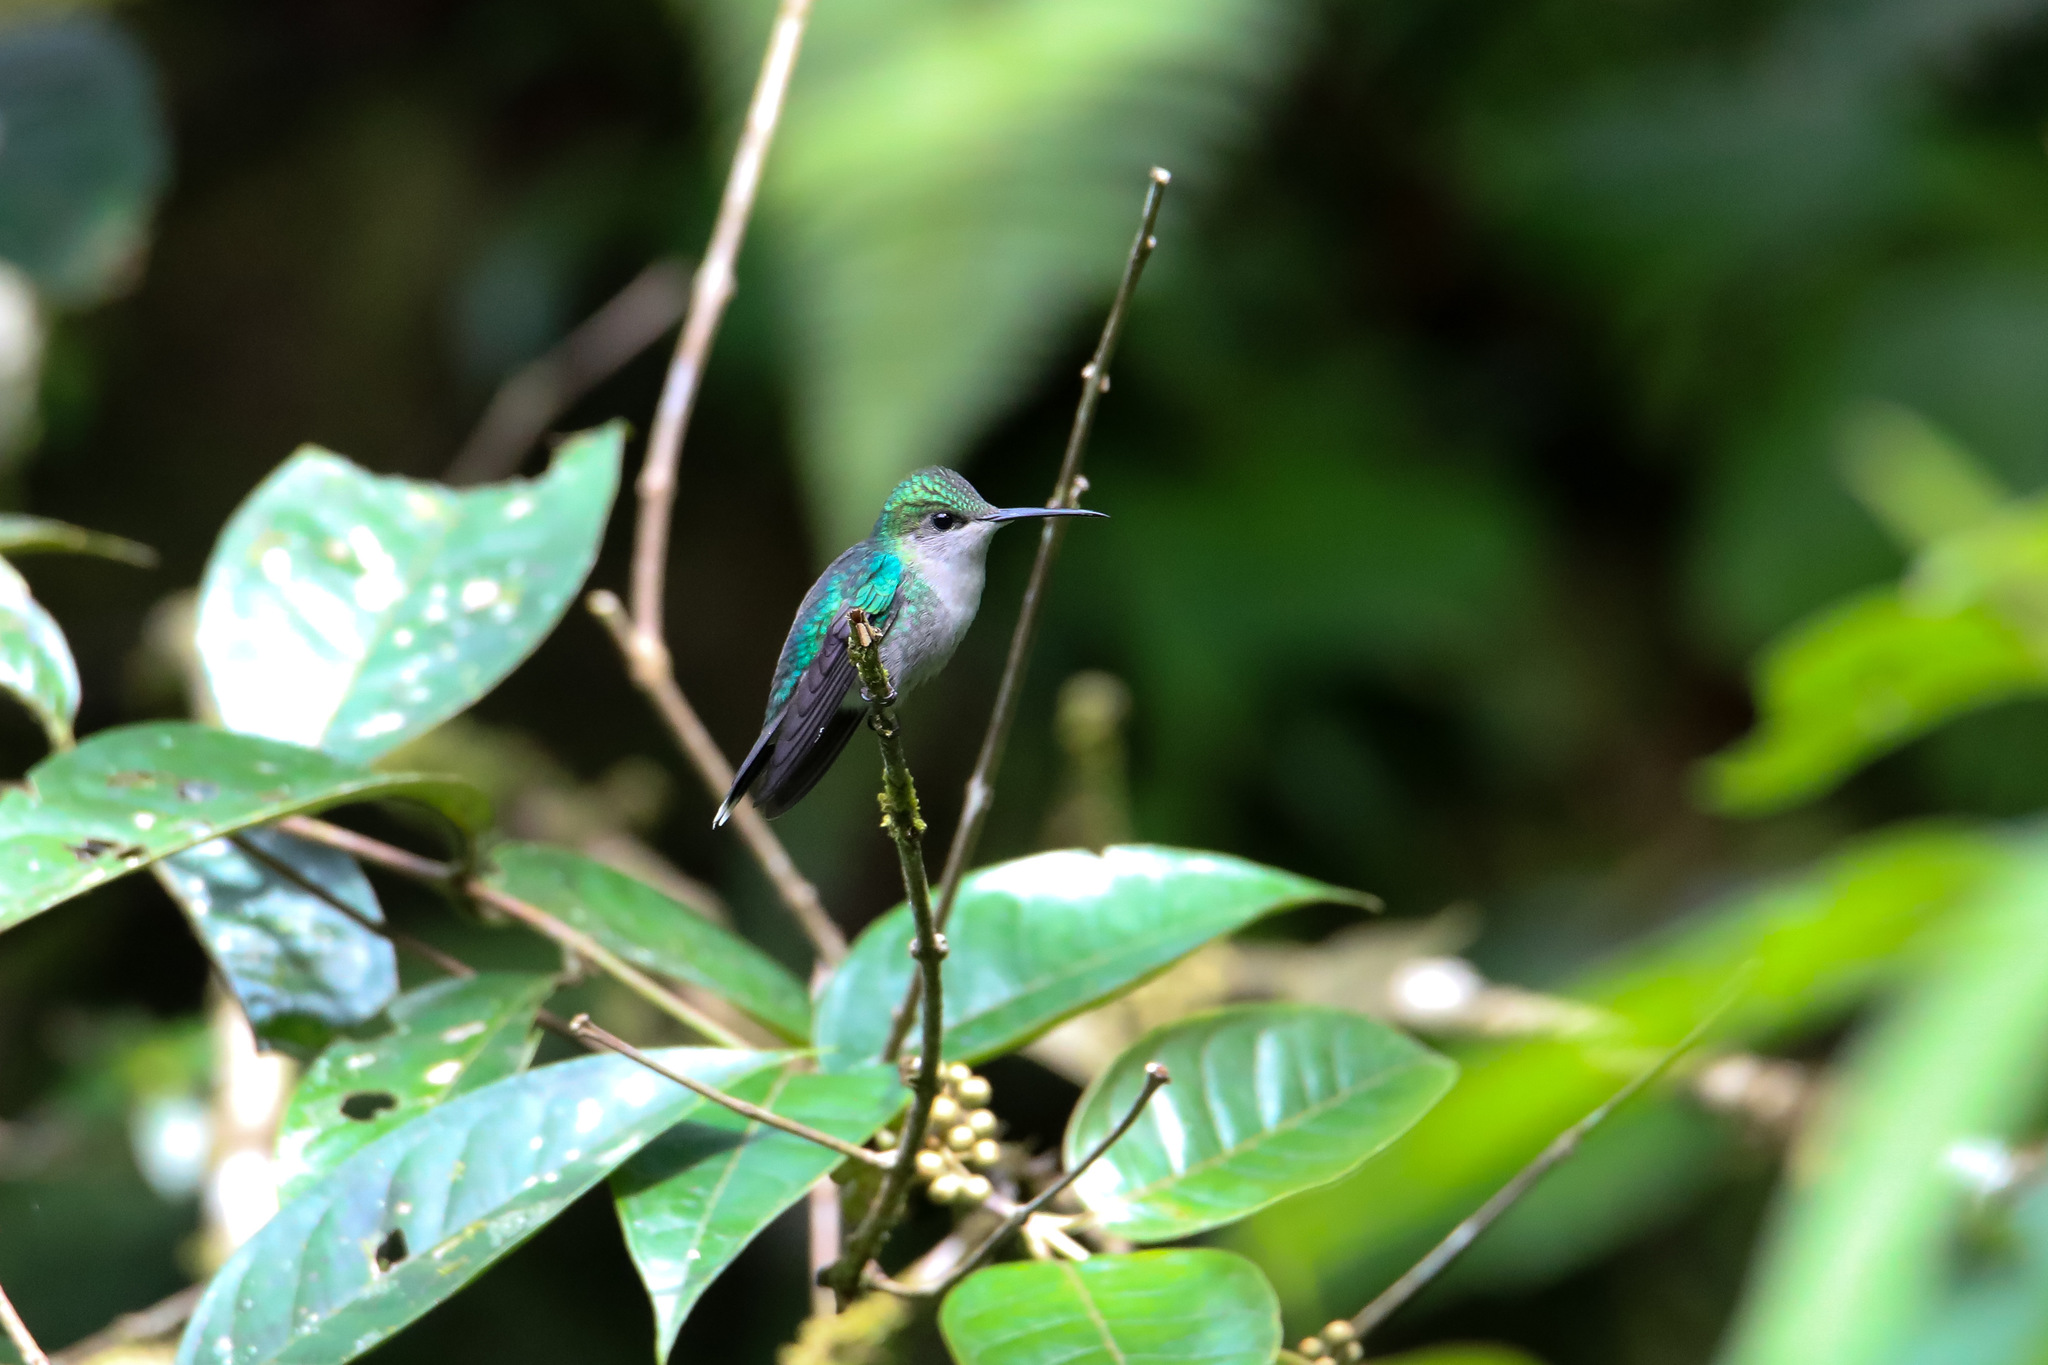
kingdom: Animalia
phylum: Chordata
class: Aves
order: Apodiformes
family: Trochilidae
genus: Thalurania
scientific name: Thalurania colombica
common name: Crowned woodnymph
